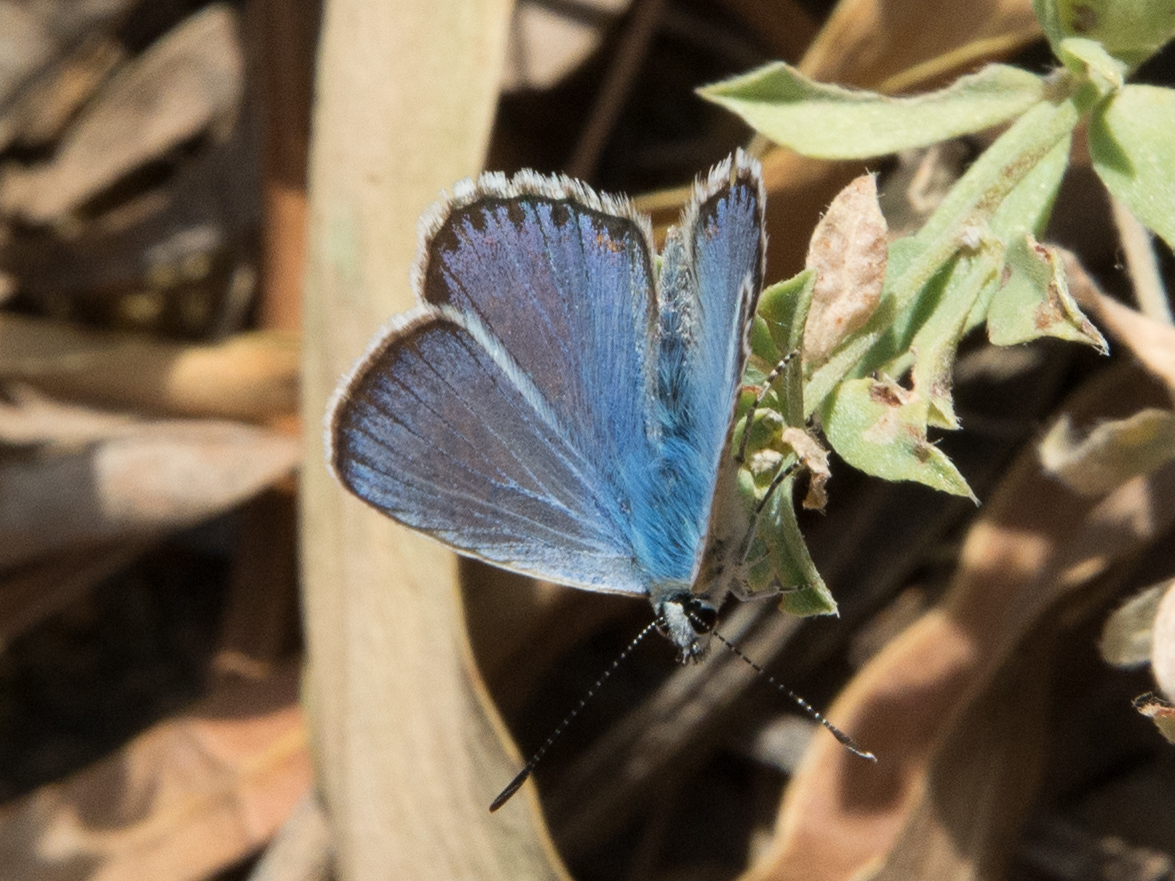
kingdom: Animalia
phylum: Arthropoda
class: Insecta
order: Lepidoptera
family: Lycaenidae
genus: Polyommatus
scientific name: Polyommatus celina
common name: Austaut's blue
